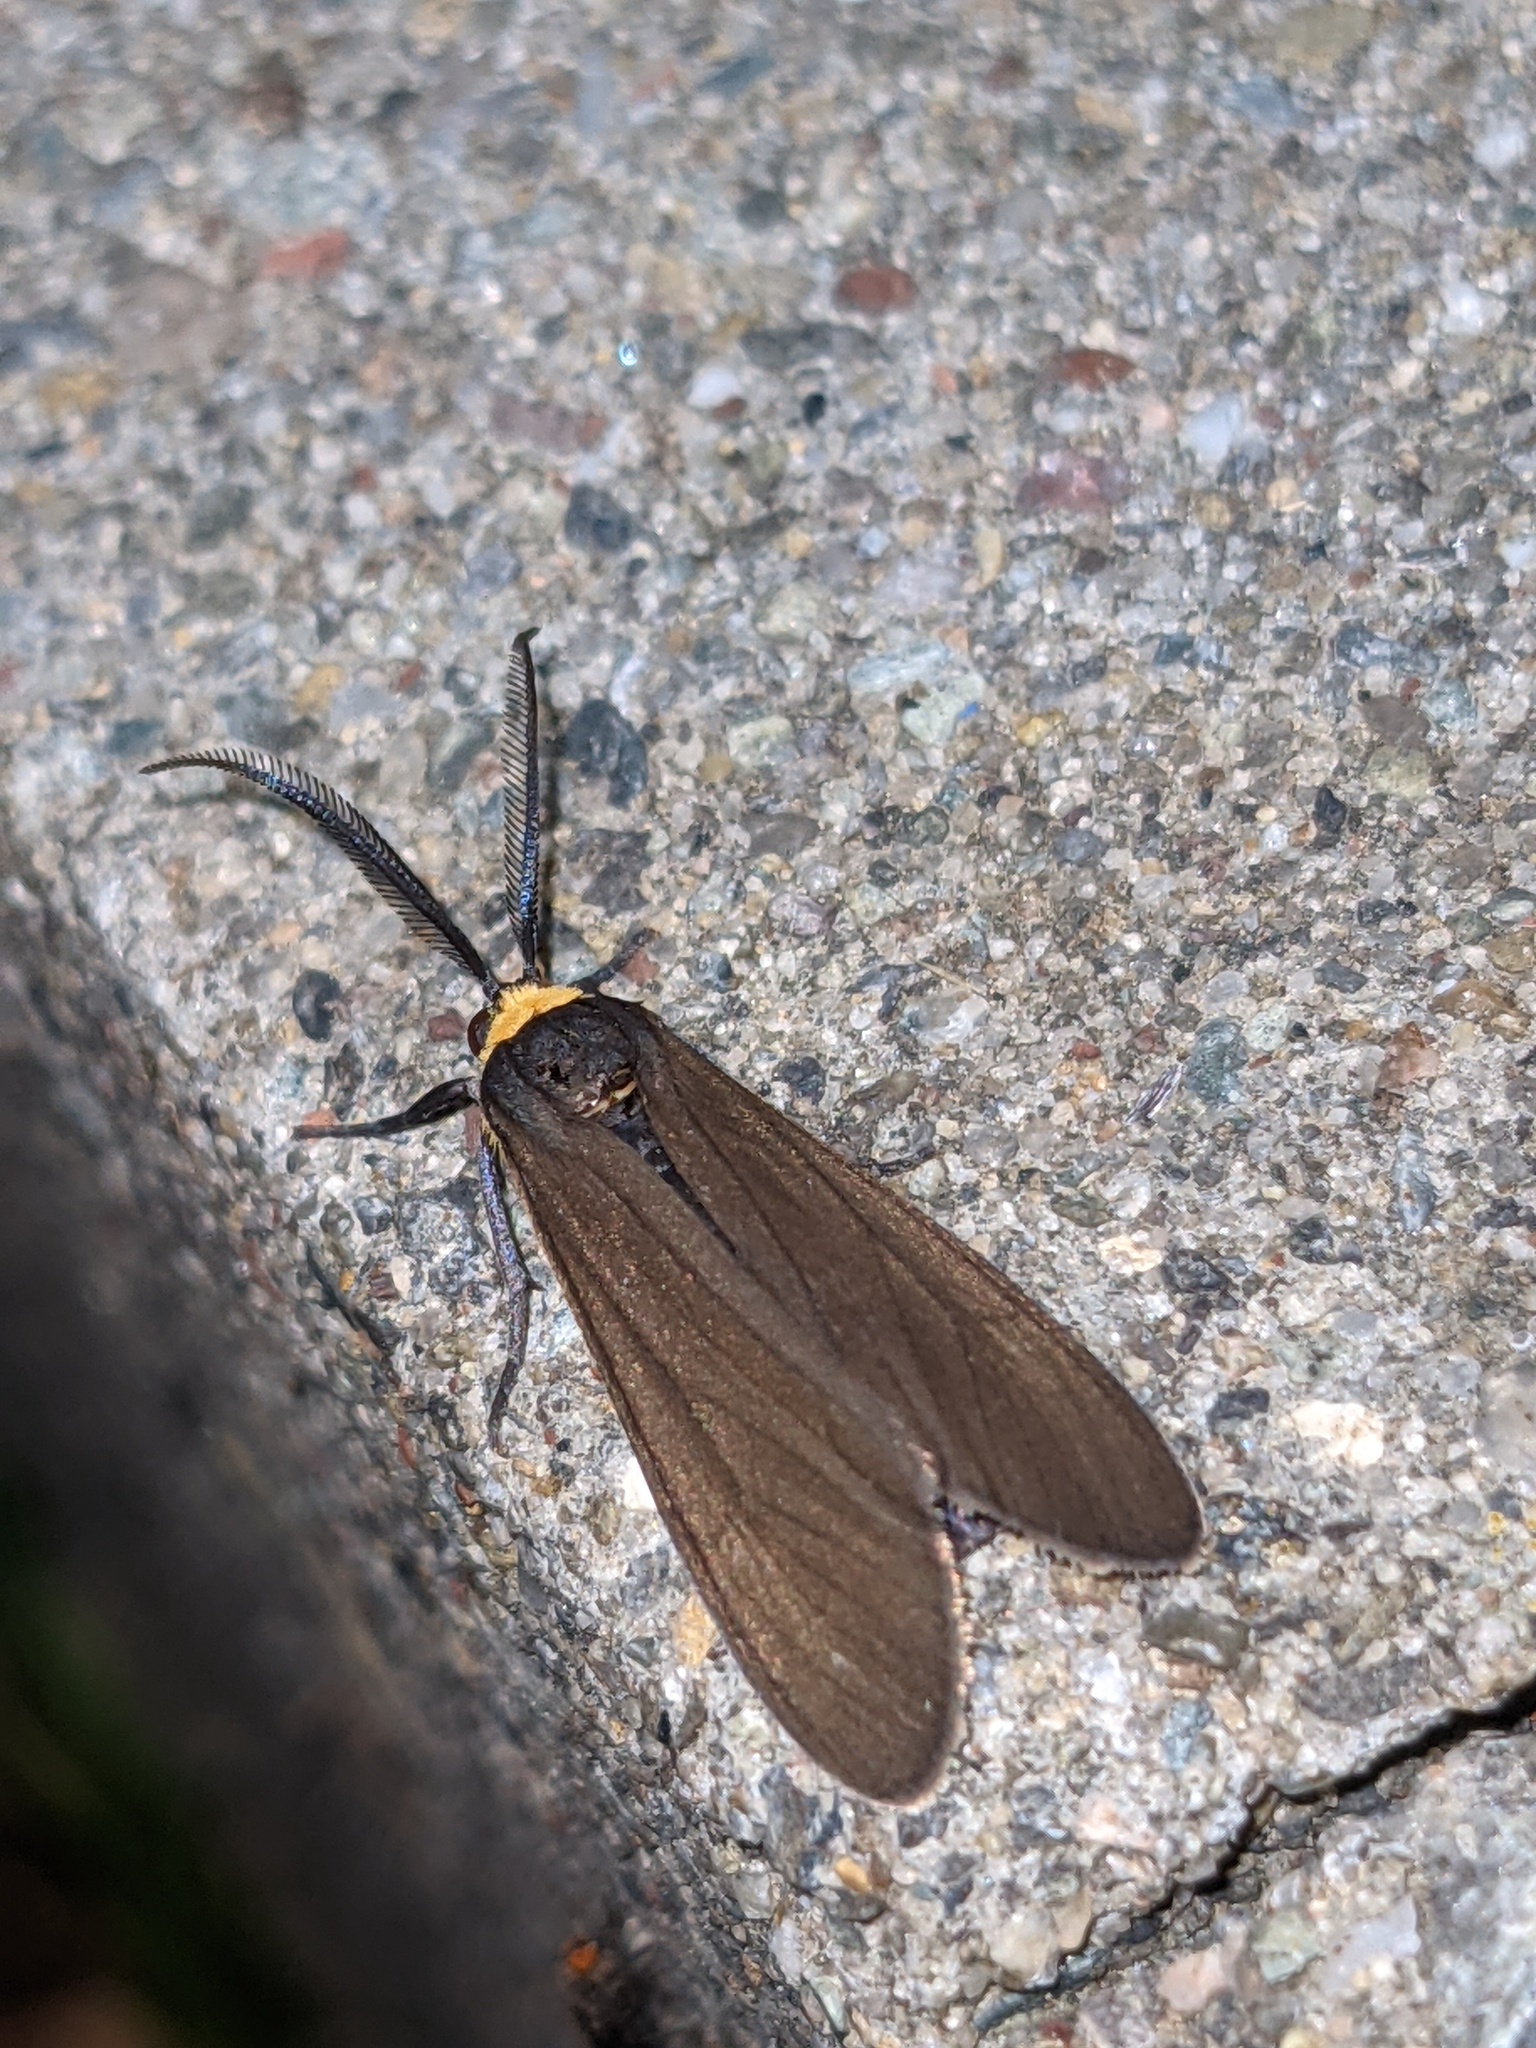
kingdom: Animalia
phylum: Arthropoda
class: Insecta
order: Lepidoptera
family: Erebidae
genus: Cisseps
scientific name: Cisseps fulvicollis
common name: Yellow-collared scape moth
